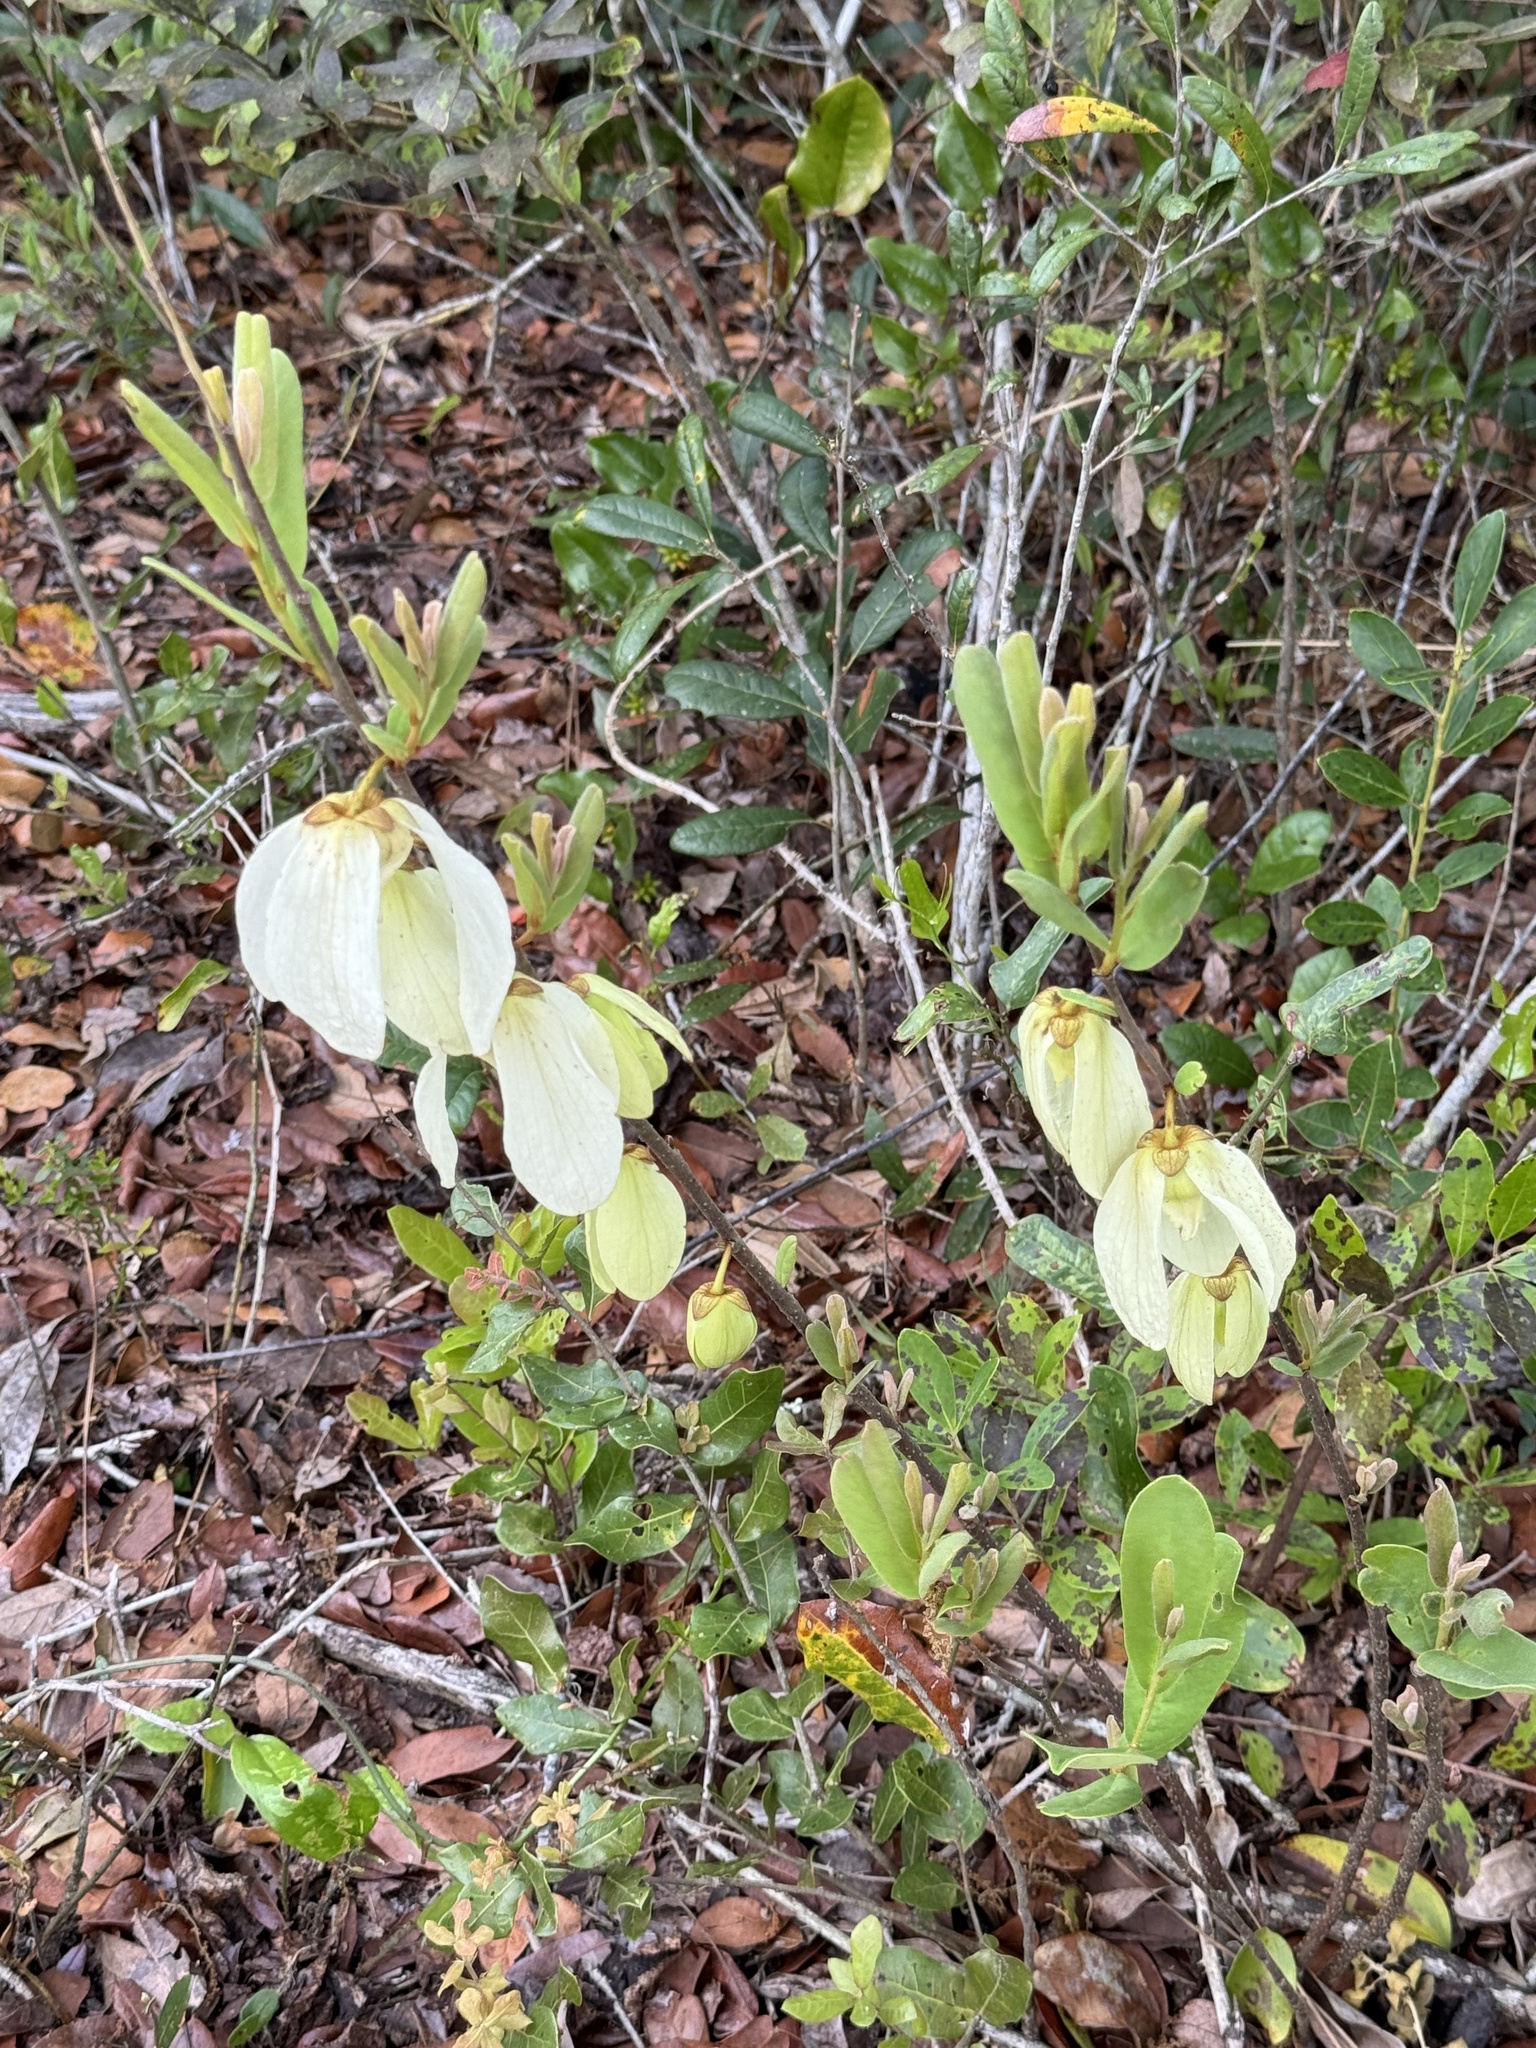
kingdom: Plantae
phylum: Tracheophyta
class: Magnoliopsida
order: Magnoliales
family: Annonaceae
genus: Asimina
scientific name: Asimina speciosa
